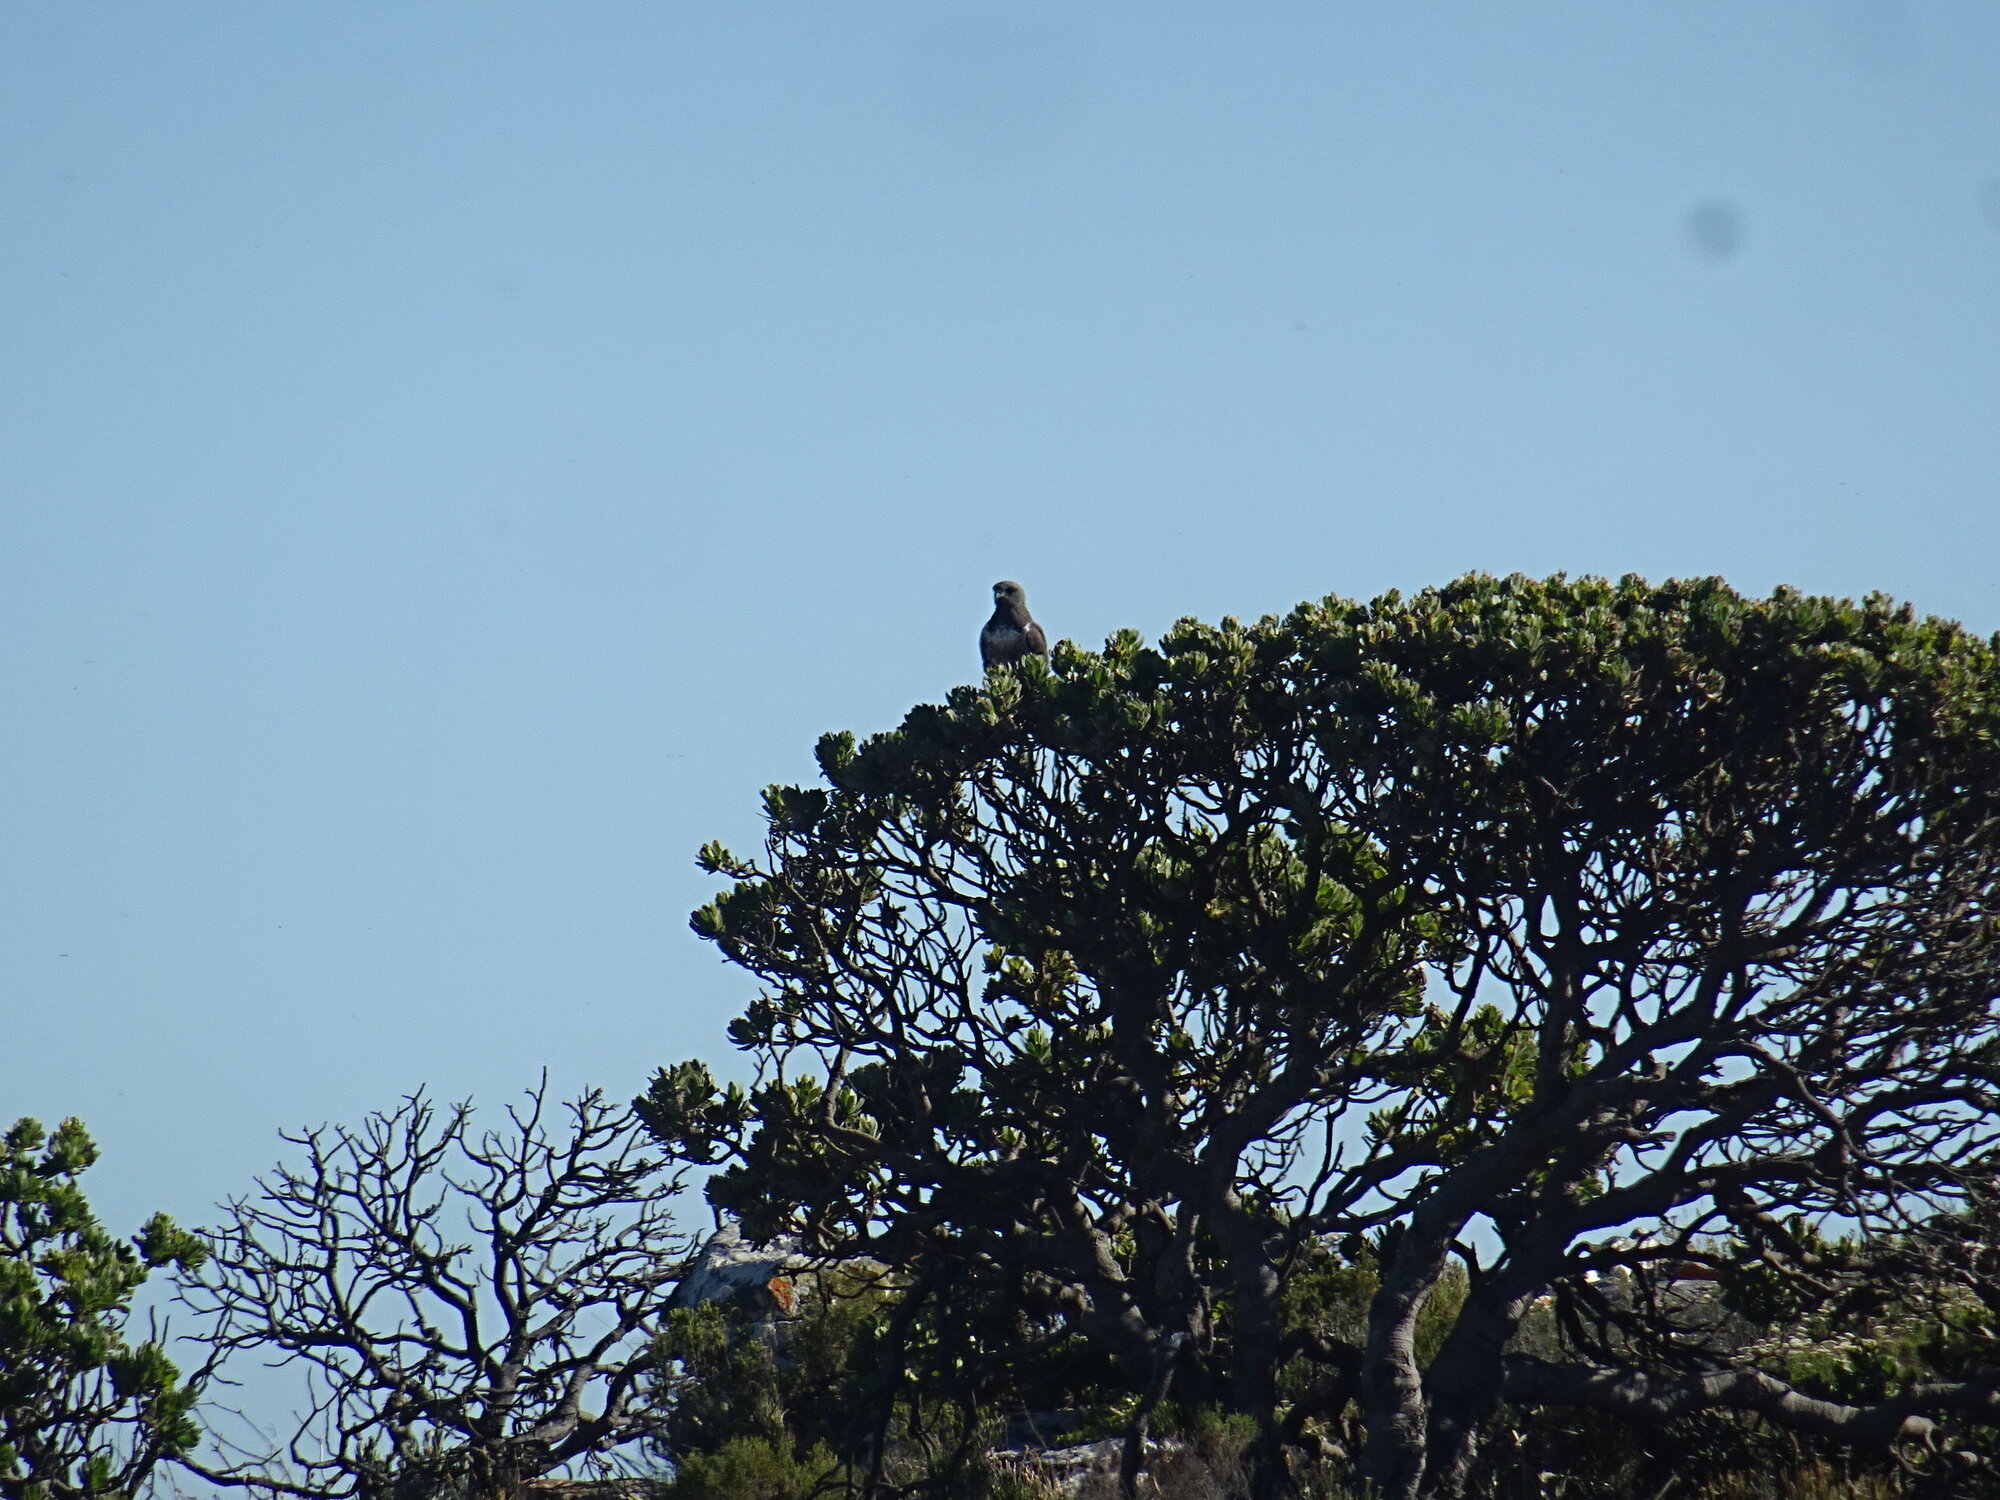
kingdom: Animalia
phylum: Chordata
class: Aves
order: Accipitriformes
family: Accipitridae
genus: Buteo
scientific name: Buteo rufofuscus
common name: Jackal buzzard
